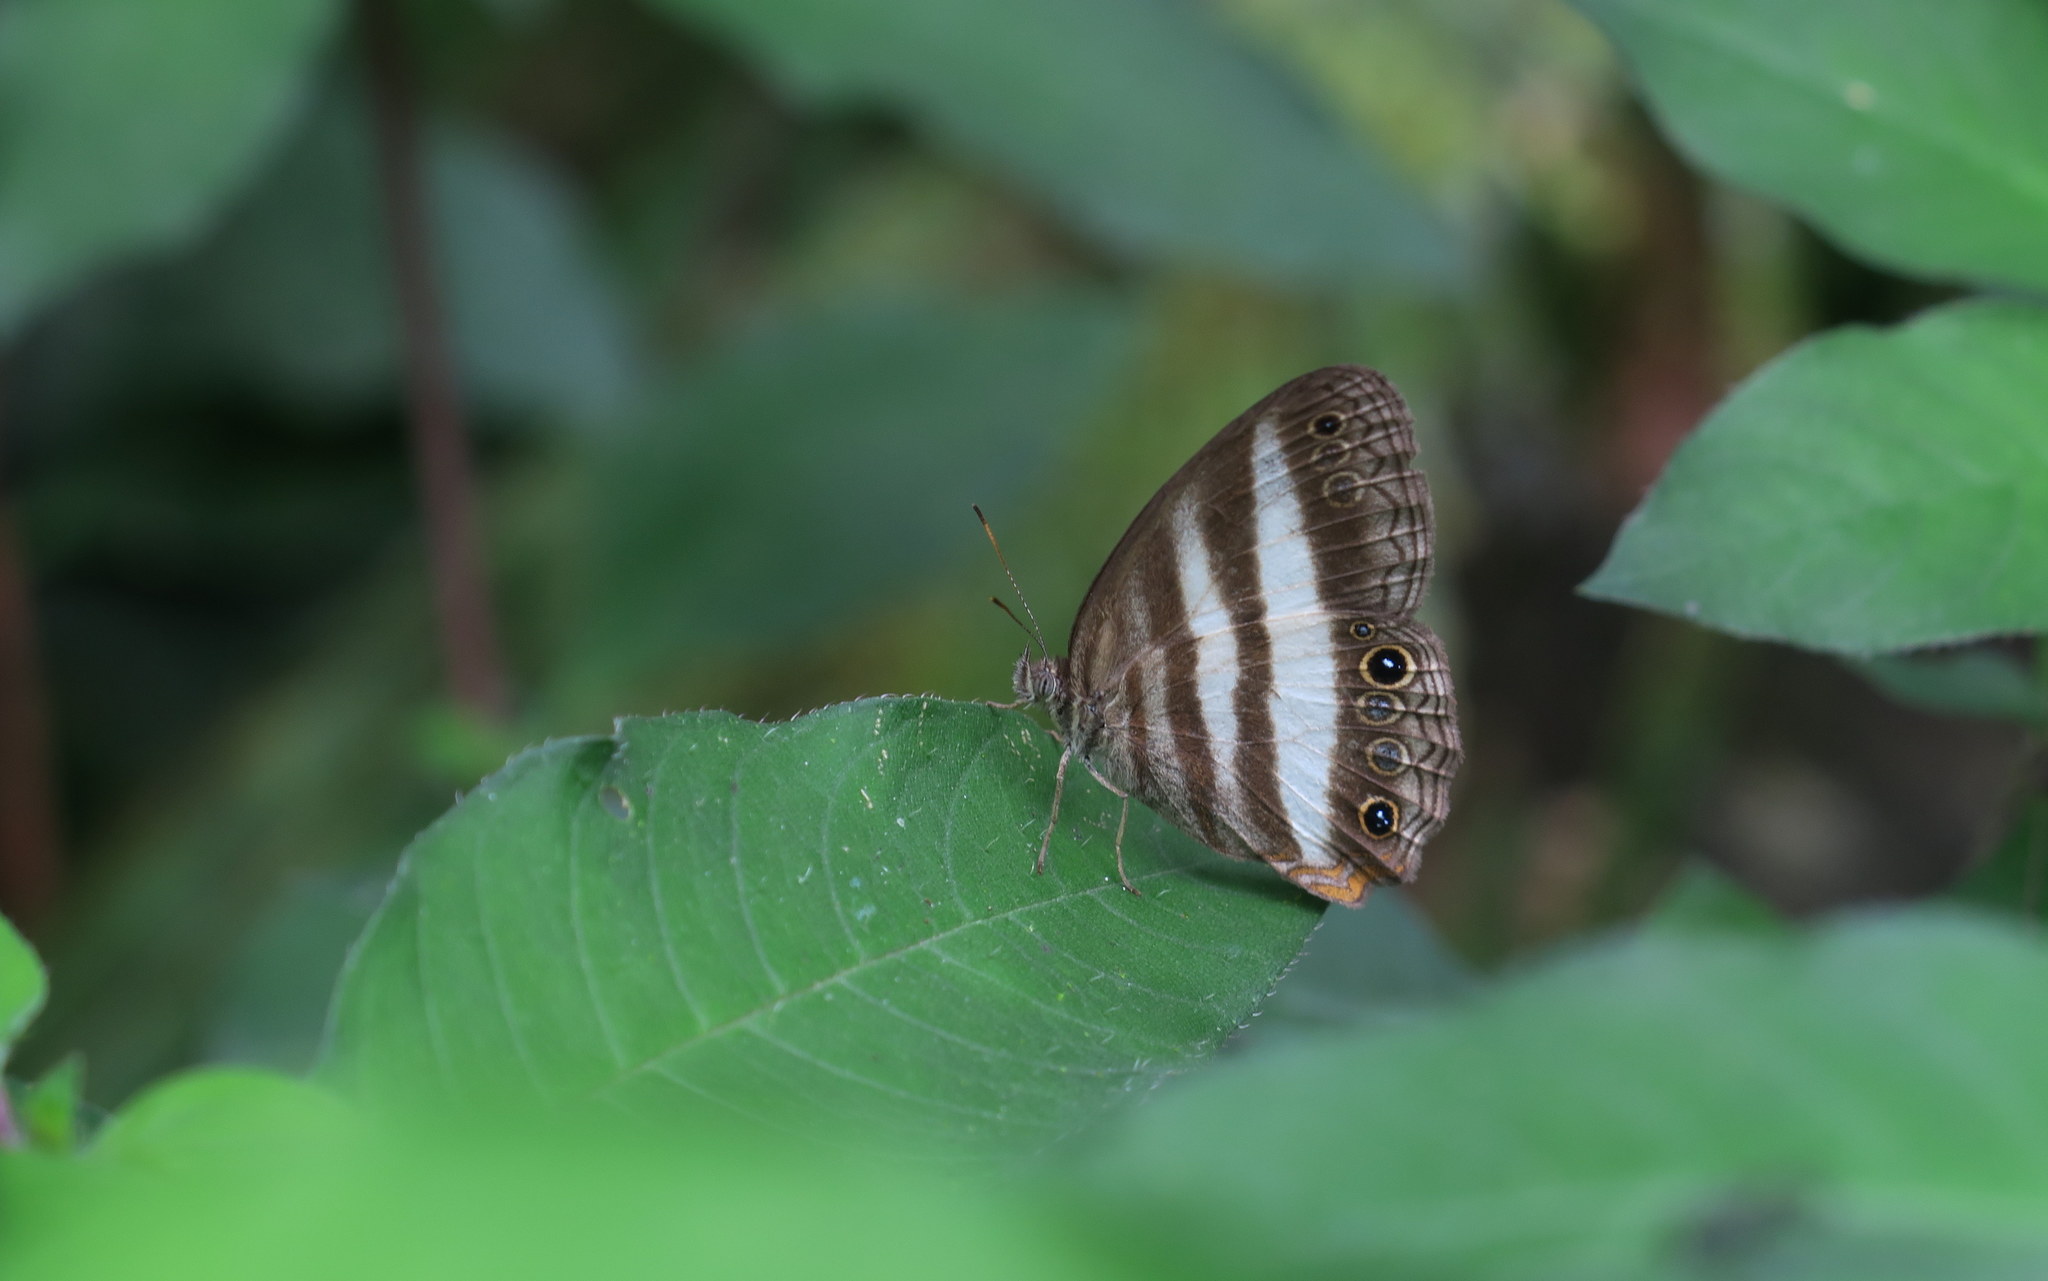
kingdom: Animalia
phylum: Arthropoda
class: Insecta
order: Lepidoptera
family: Nymphalidae
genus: Pareuptychia
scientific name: Pareuptychia hesione
